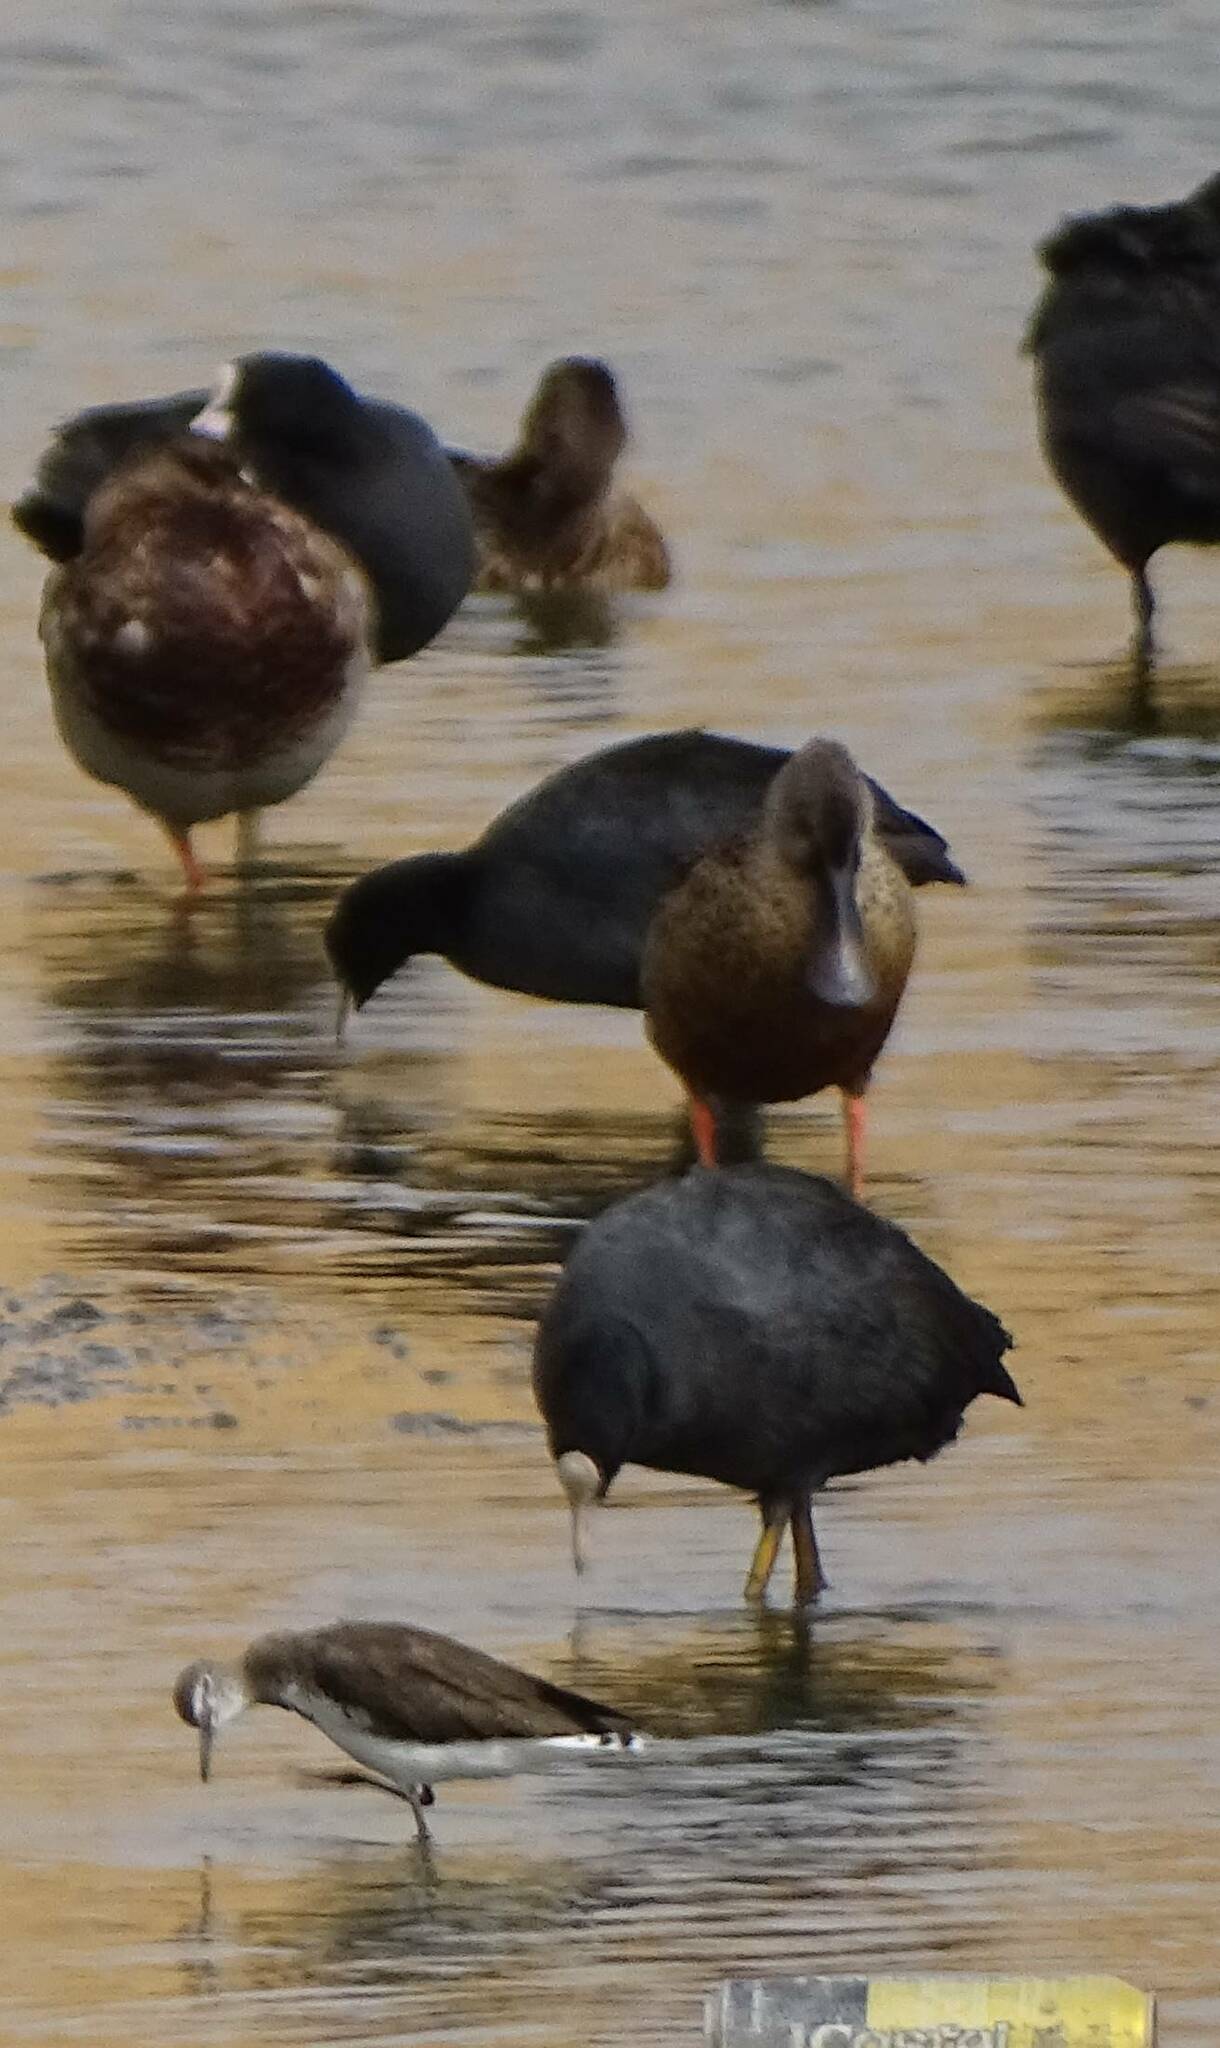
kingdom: Animalia
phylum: Chordata
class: Aves
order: Gruiformes
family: Rallidae
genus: Fulica
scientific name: Fulica atra
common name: Eurasian coot
